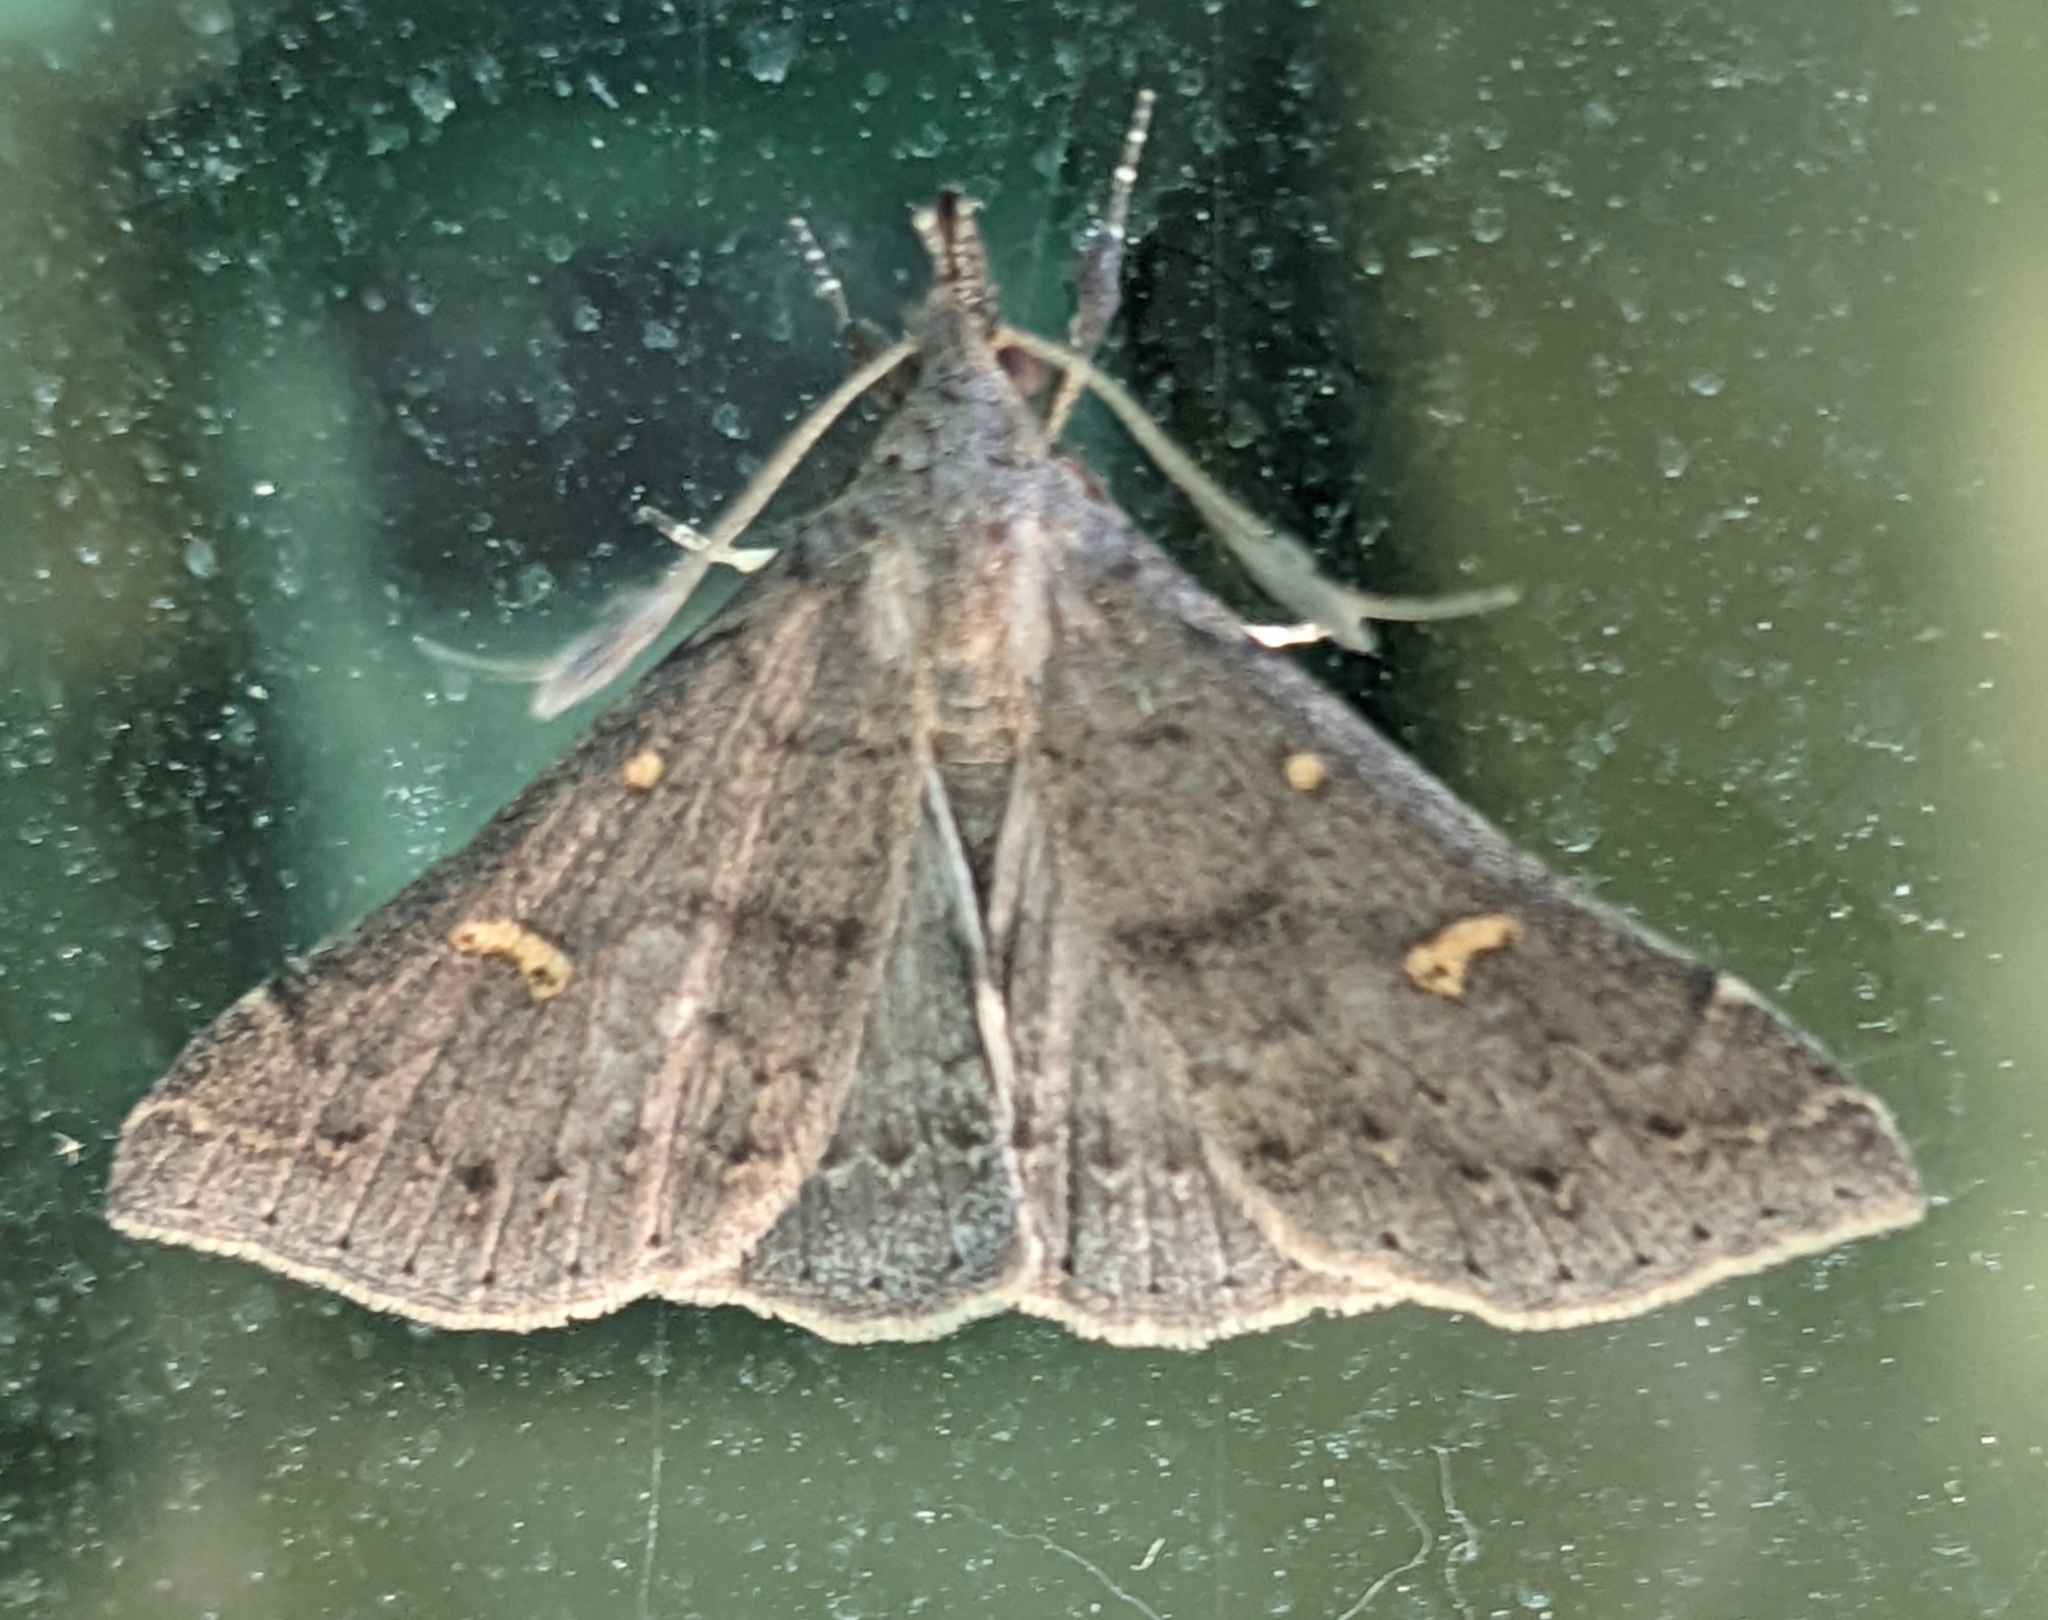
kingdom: Animalia
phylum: Arthropoda
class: Insecta
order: Lepidoptera
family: Erebidae
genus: Renia
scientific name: Renia adspergillus
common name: Speckled renia moth
